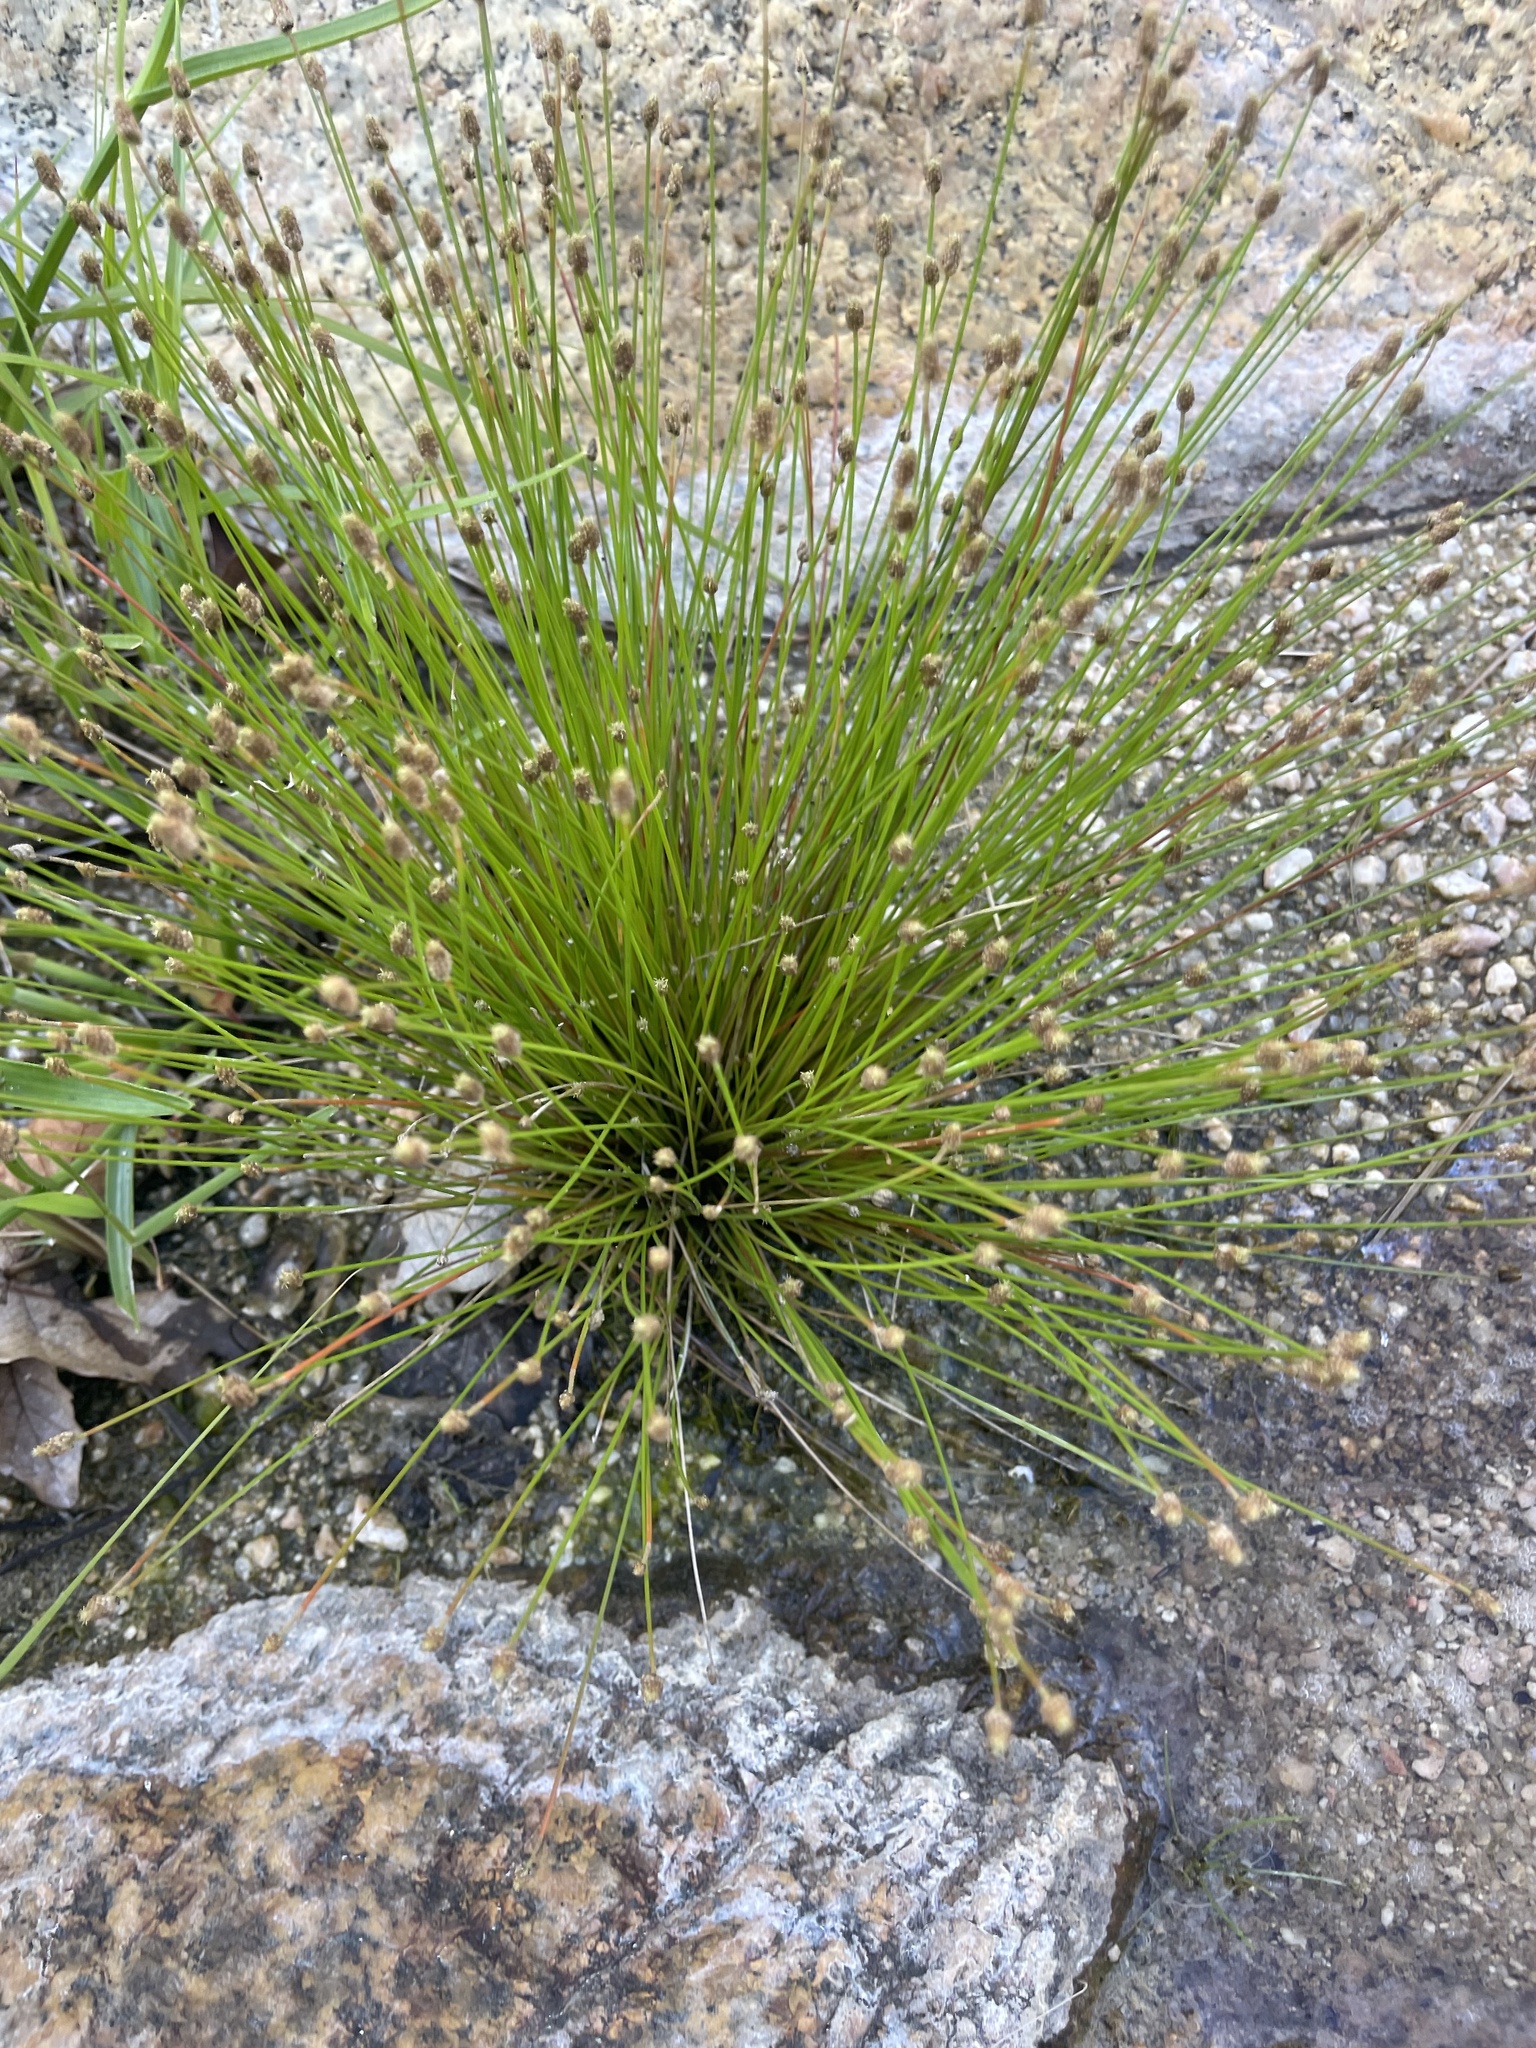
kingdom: Plantae
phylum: Tracheophyta
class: Liliopsida
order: Poales
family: Cyperaceae
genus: Eleocharis
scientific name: Eleocharis geniculata
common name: Canada spikesedge
